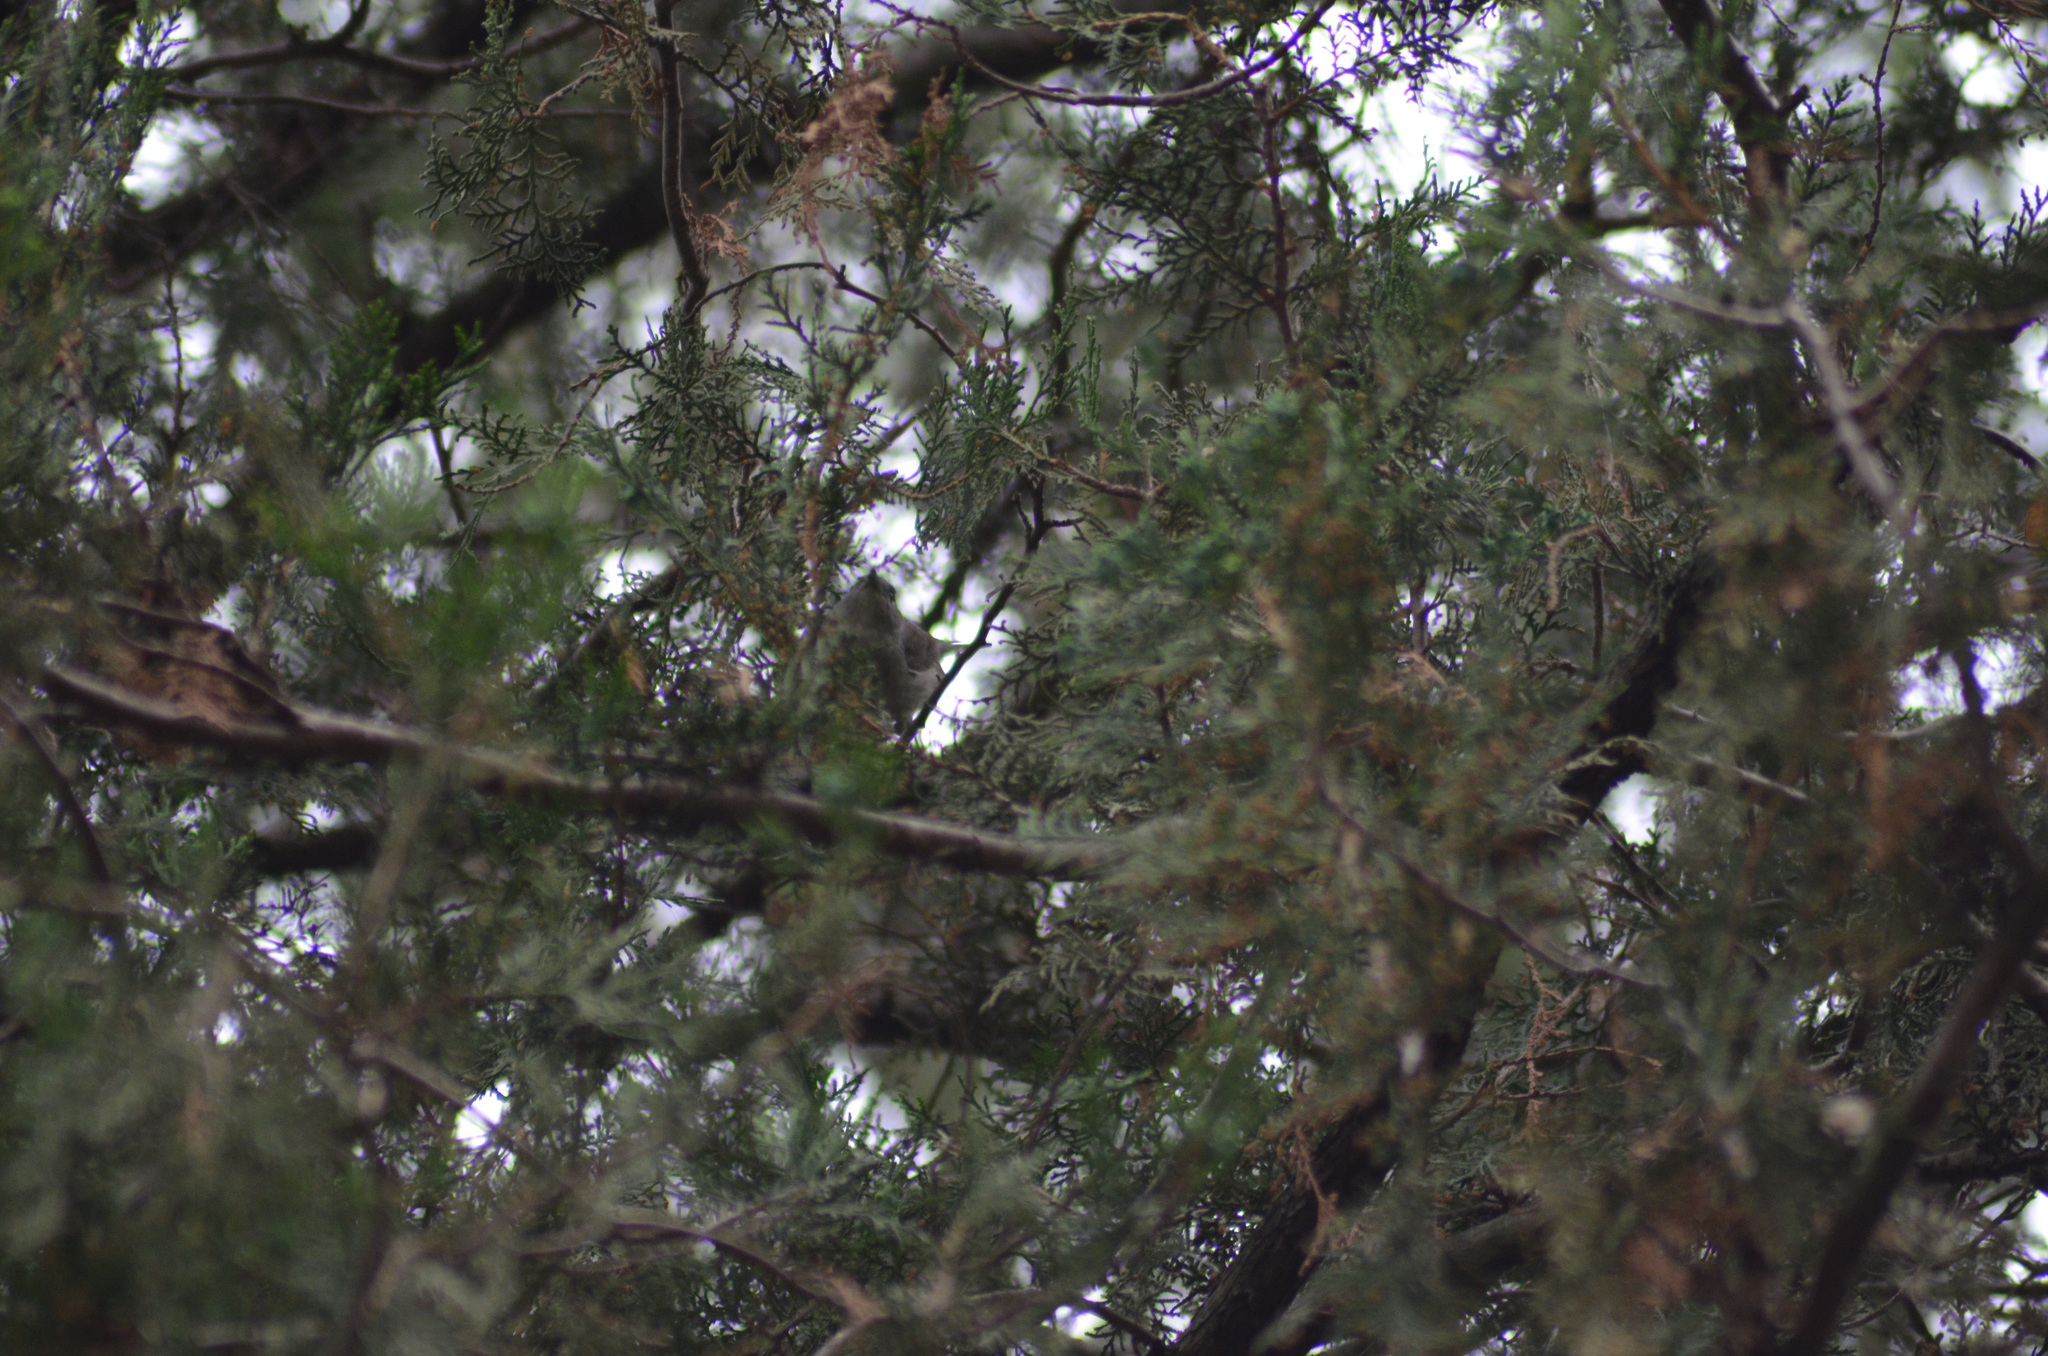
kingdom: Animalia
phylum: Chordata
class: Aves
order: Passeriformes
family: Sylviidae
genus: Sylvia
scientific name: Sylvia atricapilla
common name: Eurasian blackcap
